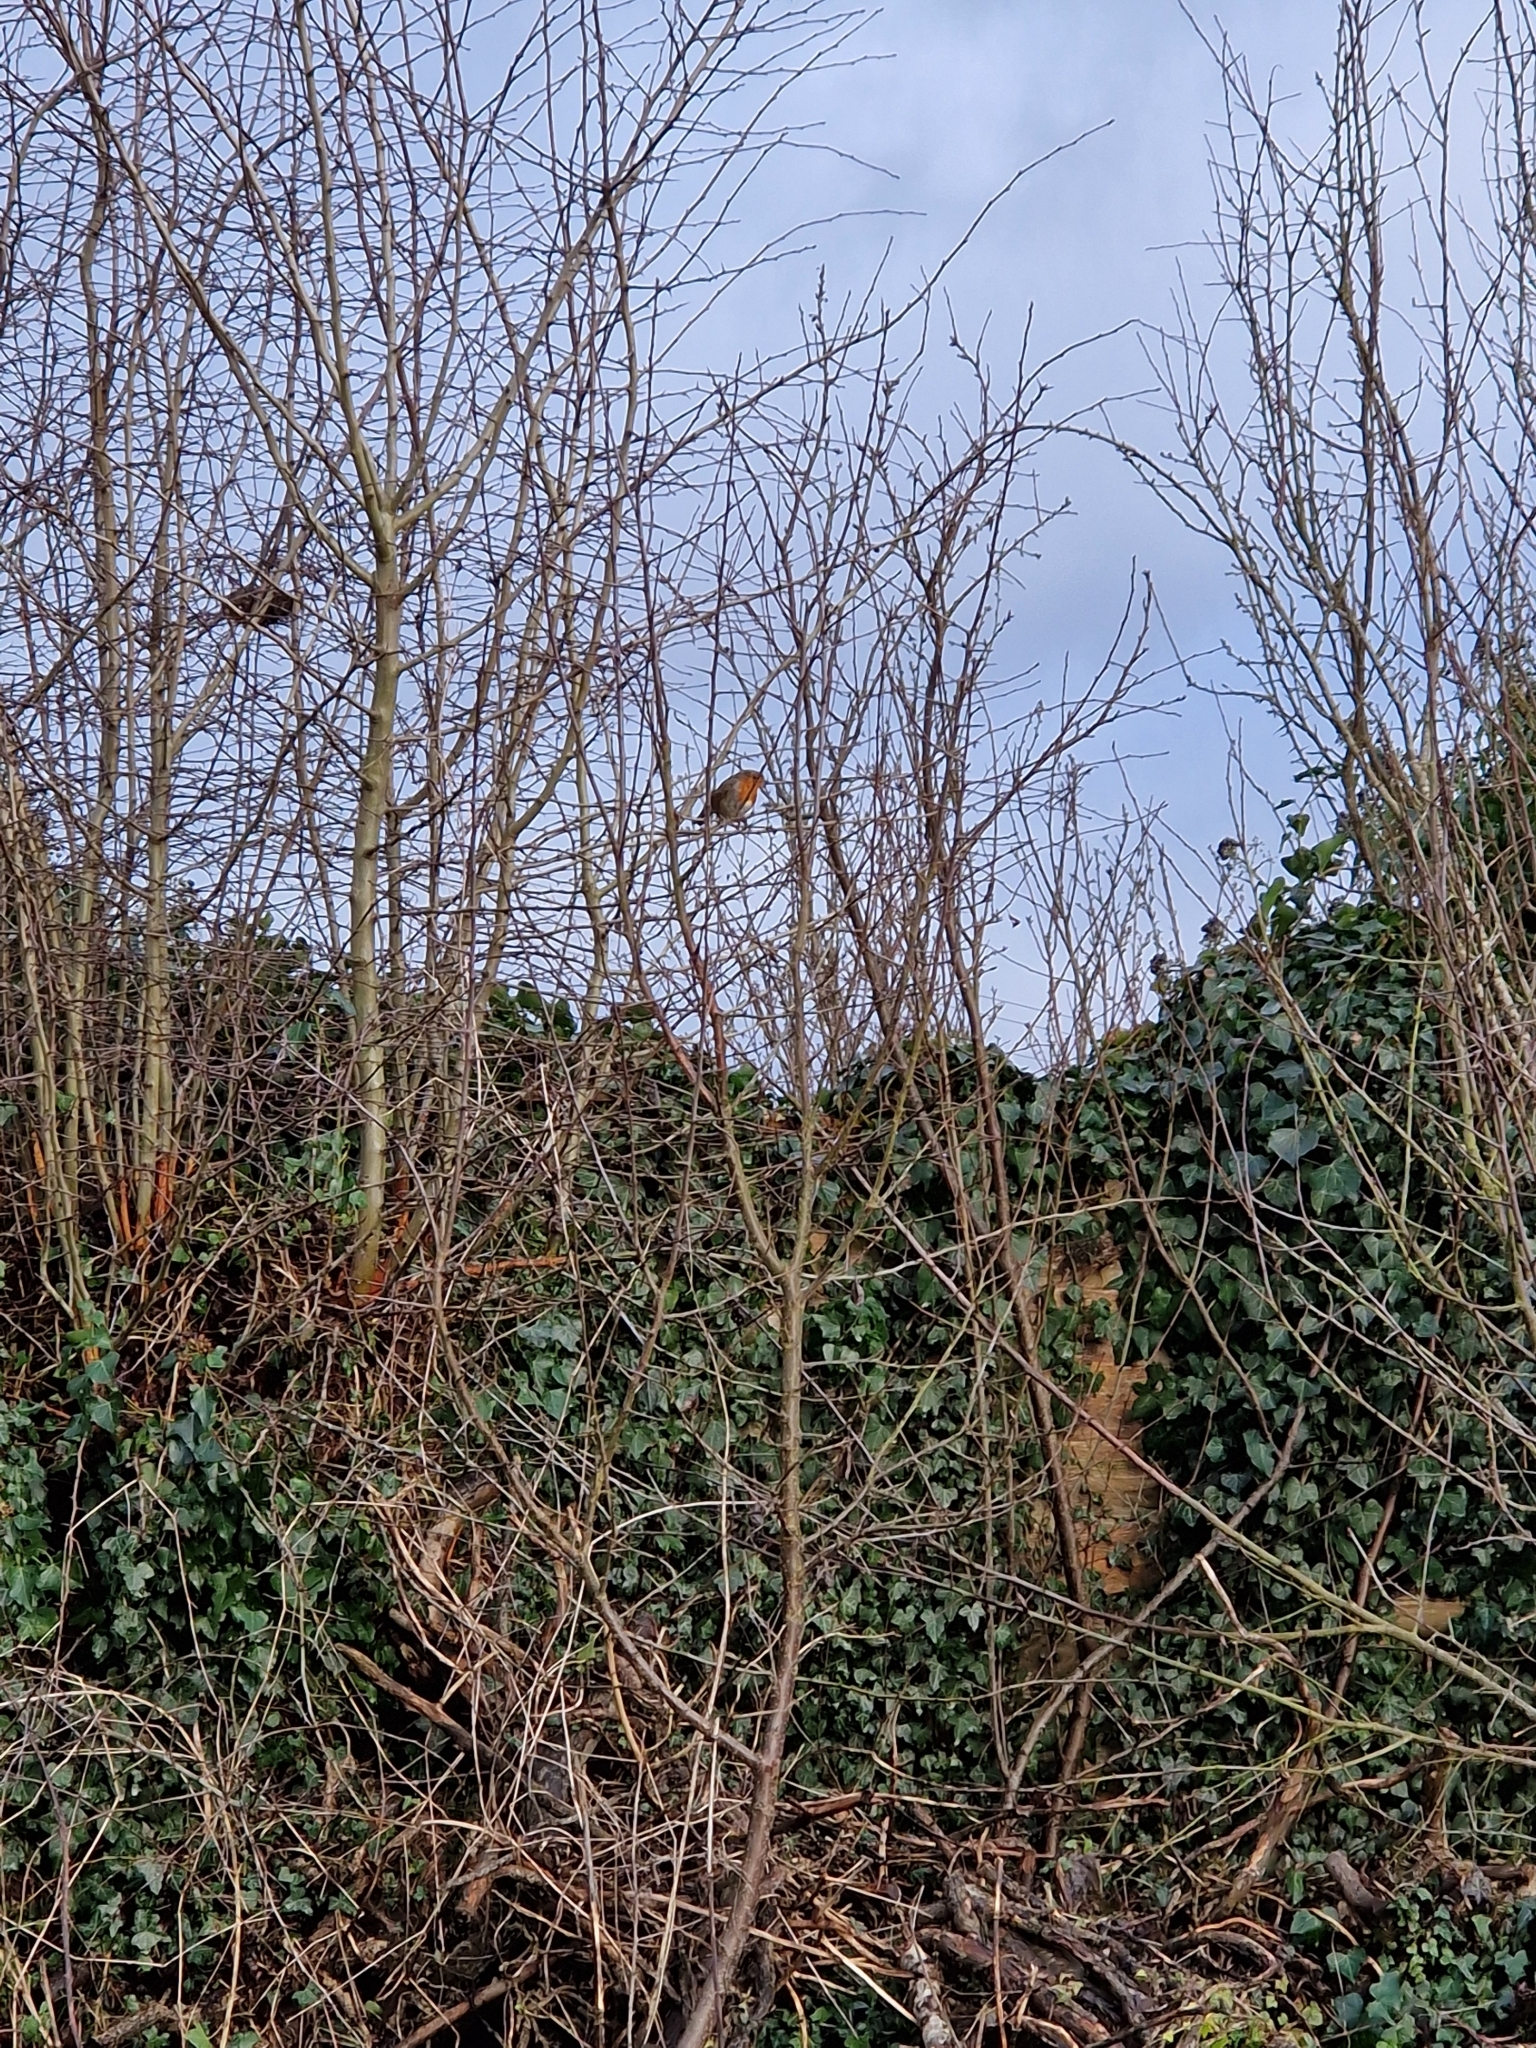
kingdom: Animalia
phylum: Chordata
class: Aves
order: Passeriformes
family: Muscicapidae
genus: Erithacus
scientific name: Erithacus rubecula
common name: European robin
